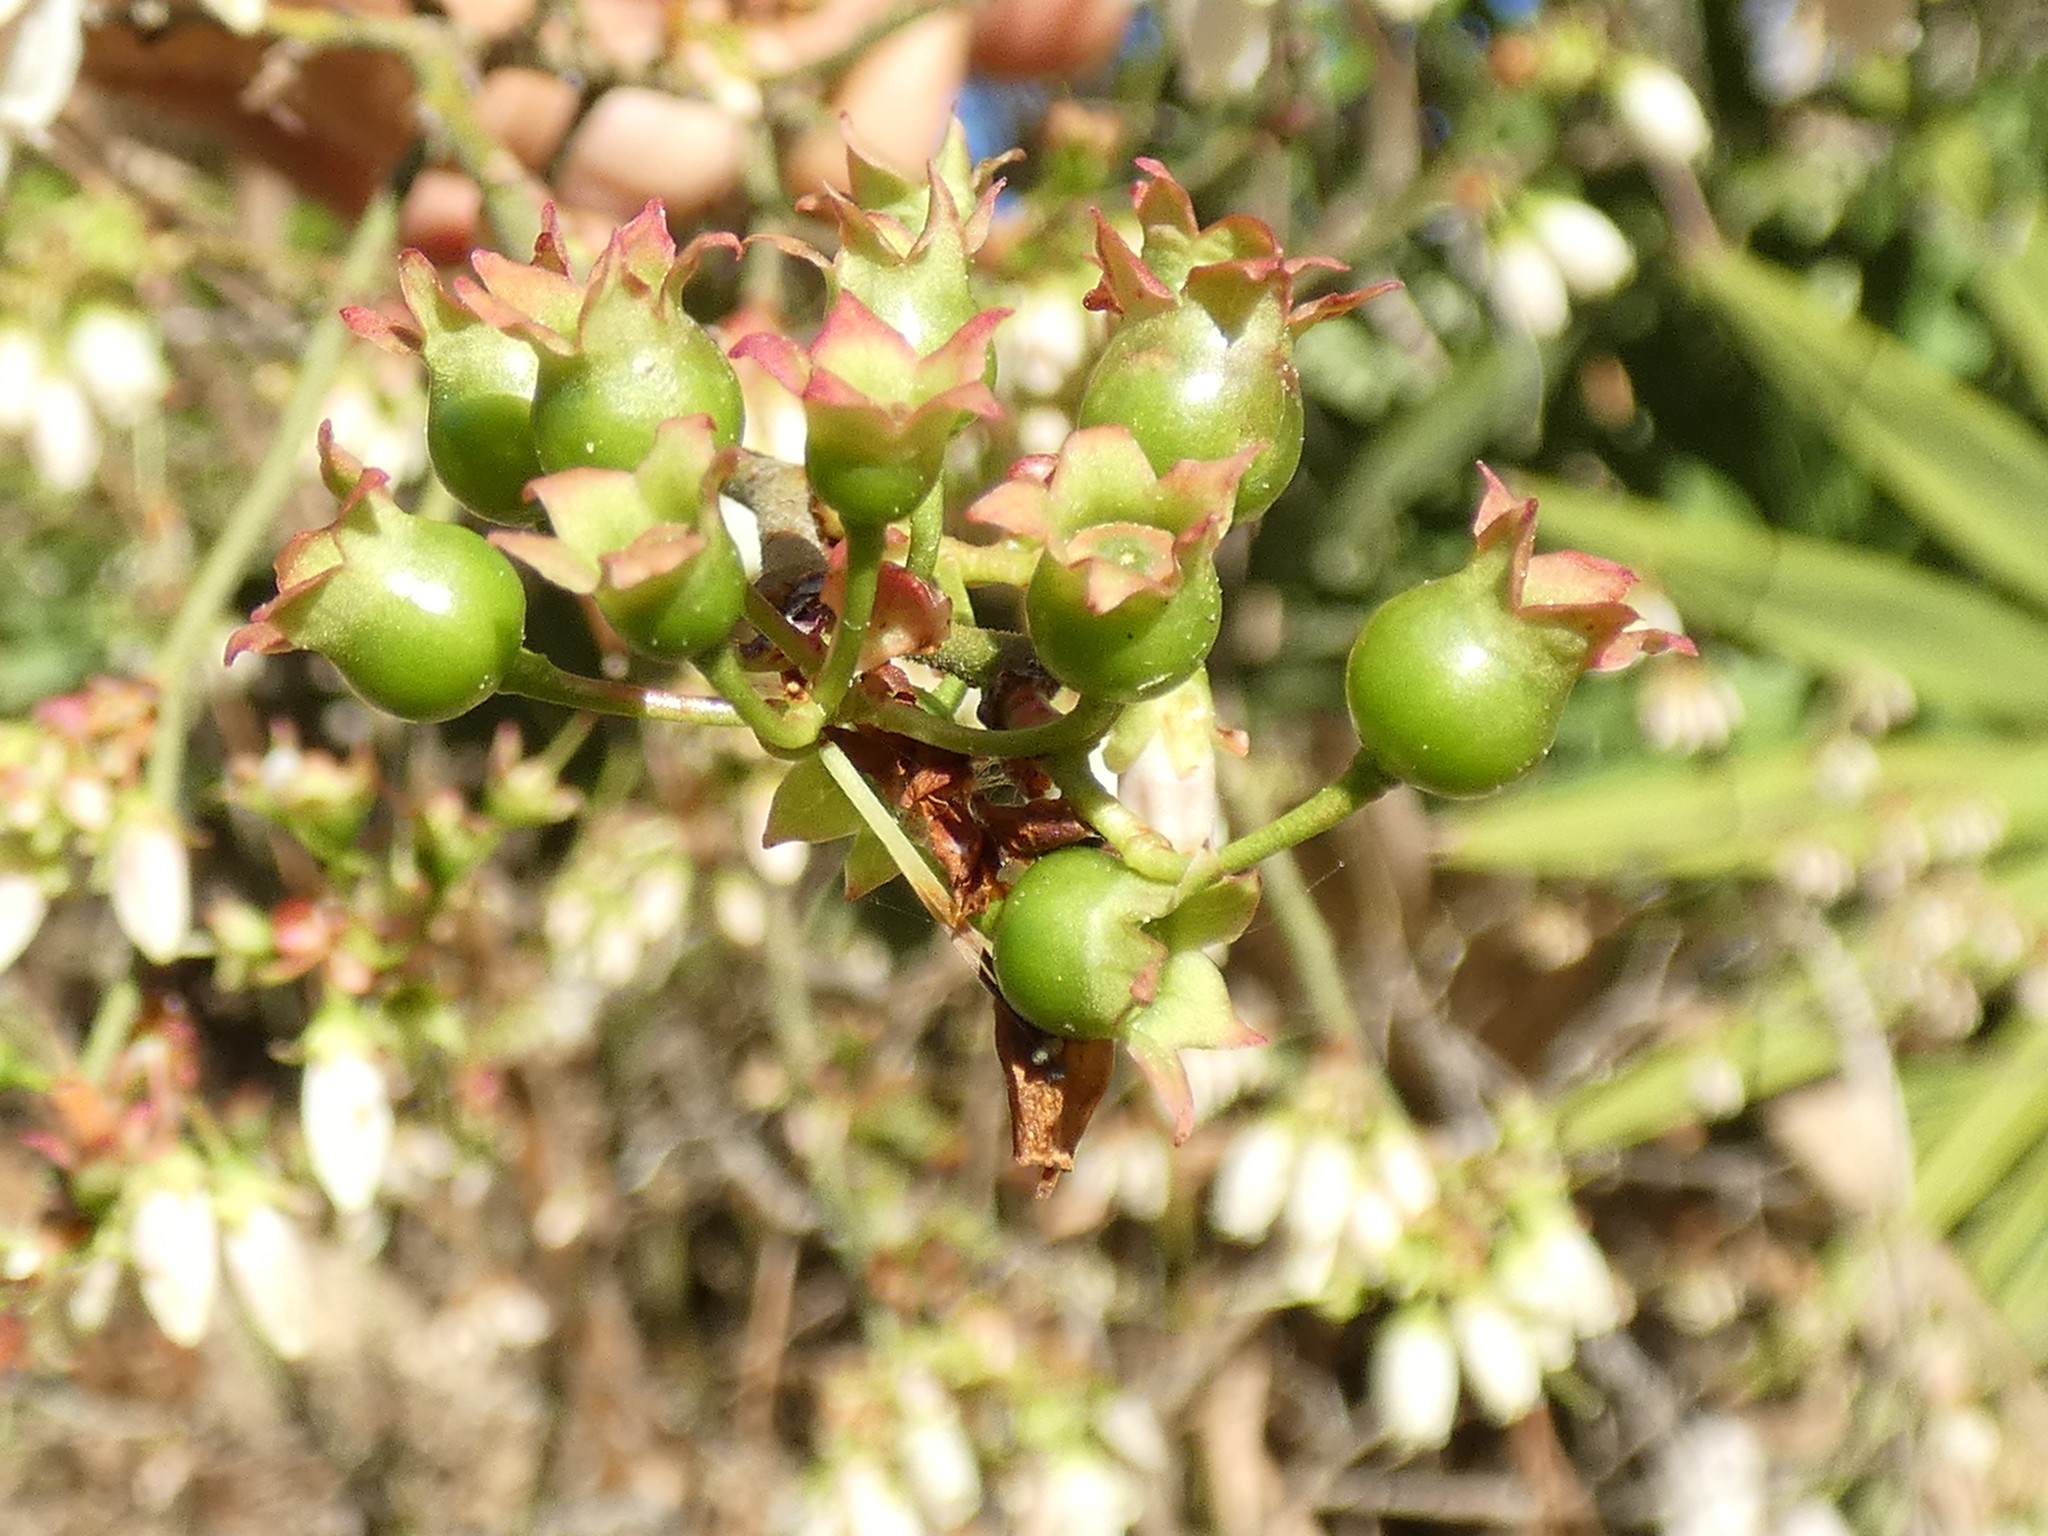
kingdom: Plantae
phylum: Tracheophyta
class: Magnoliopsida
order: Ericales
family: Ericaceae
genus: Vaccinium
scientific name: Vaccinium corymbosum
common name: Blueberry
